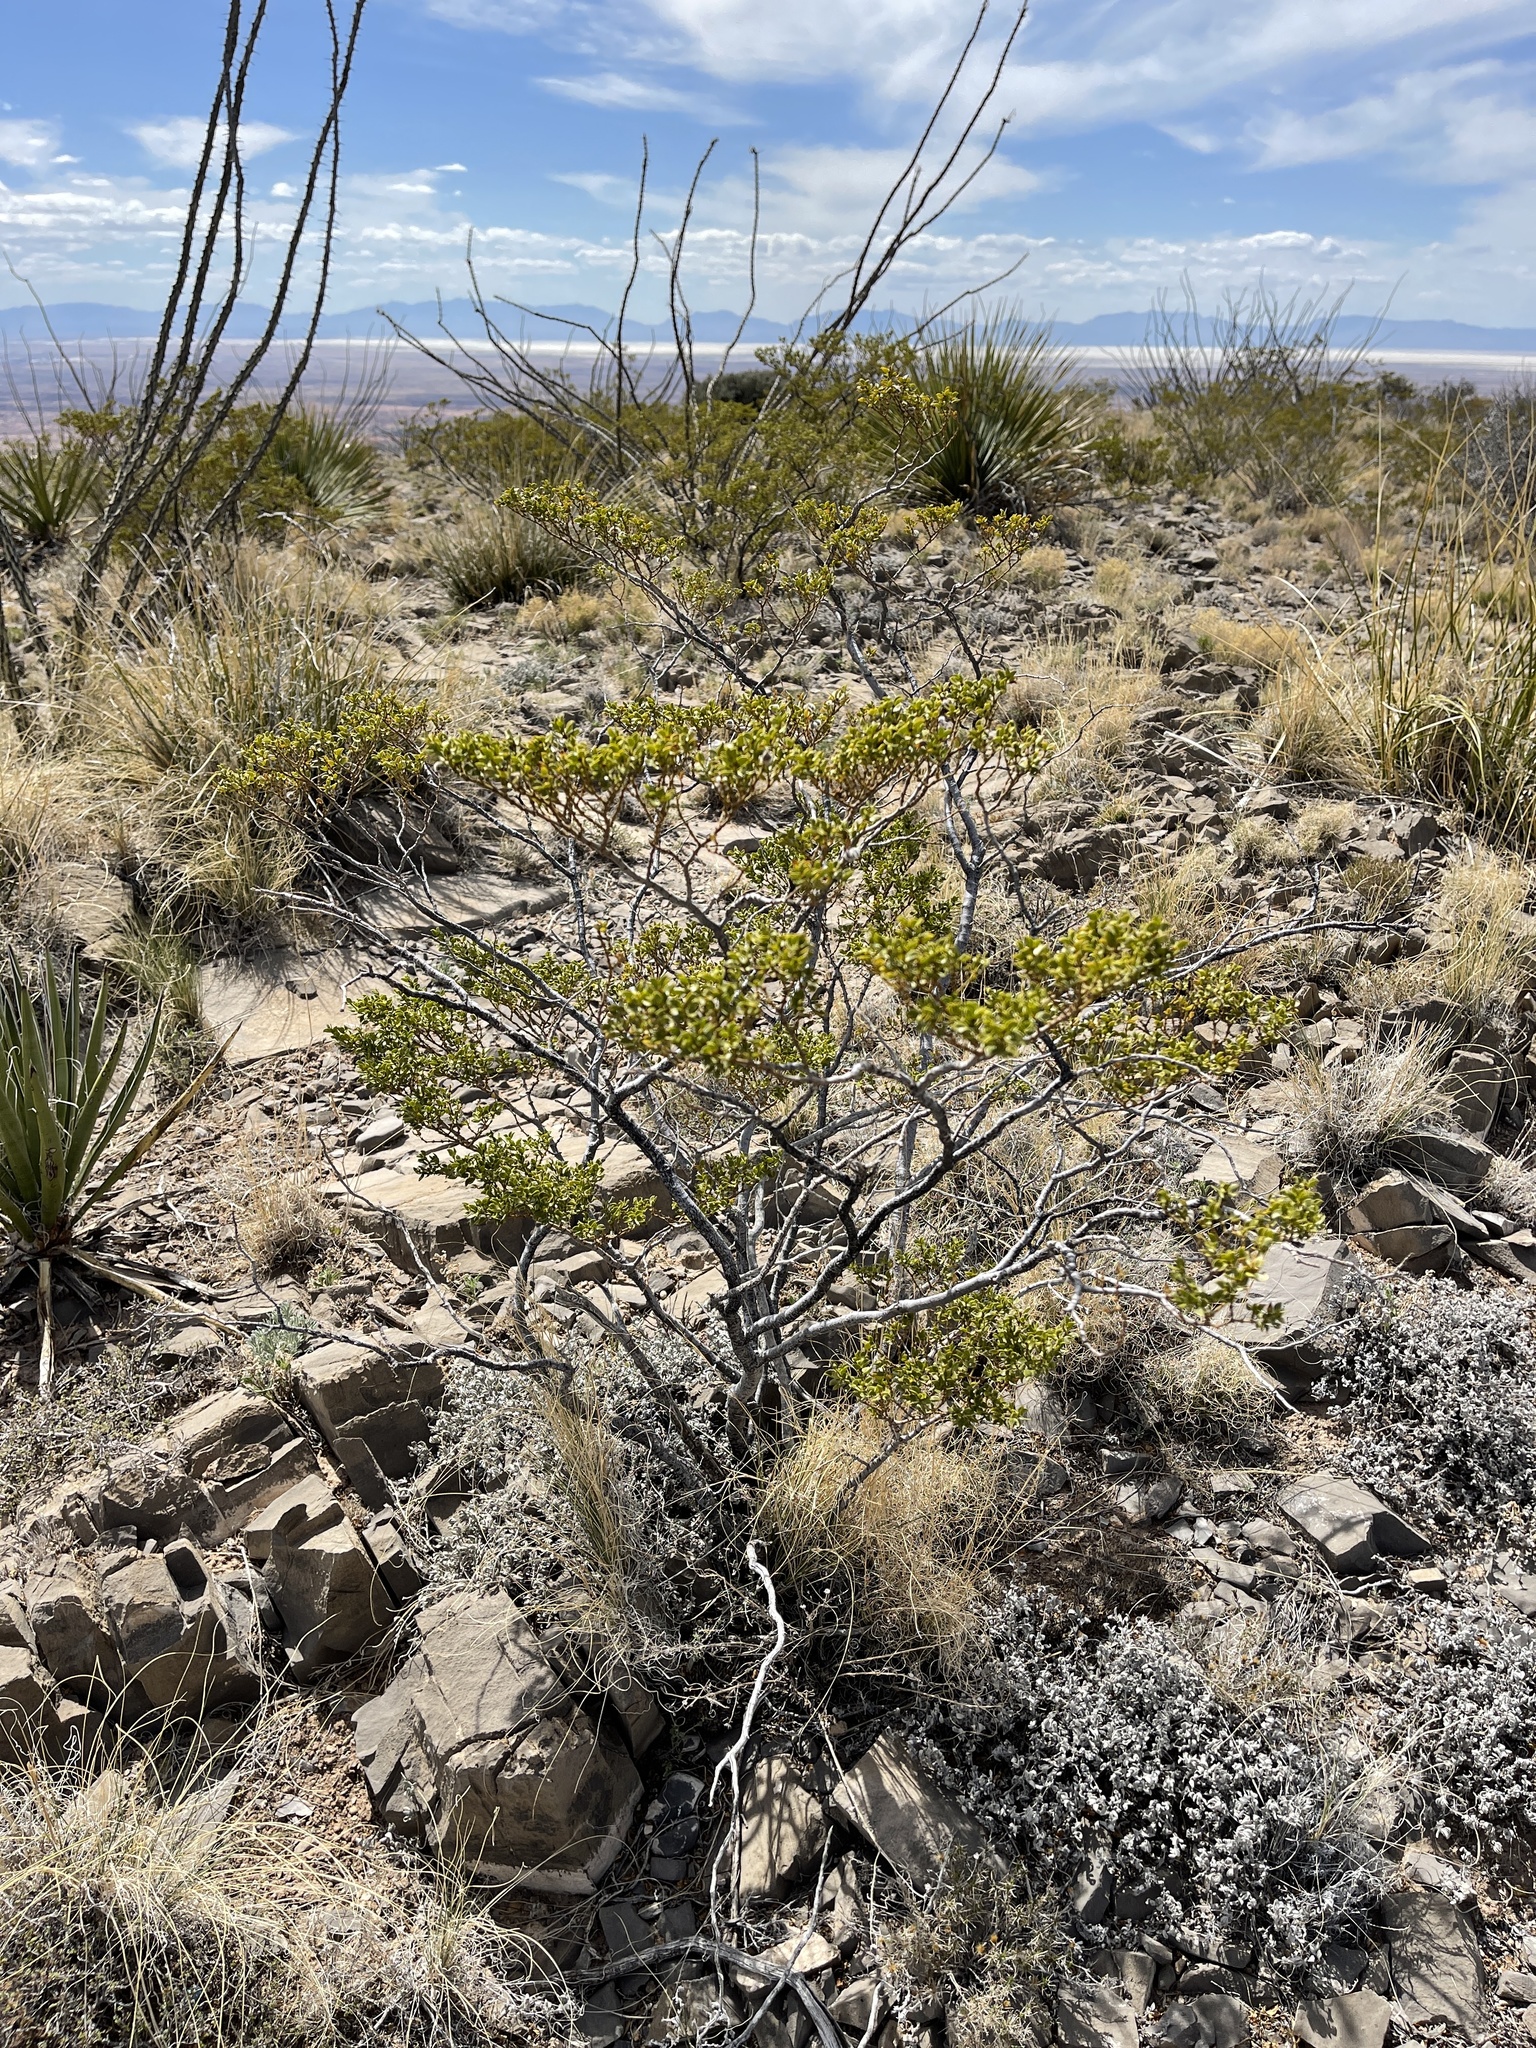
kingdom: Plantae
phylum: Tracheophyta
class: Magnoliopsida
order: Zygophyllales
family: Zygophyllaceae
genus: Larrea
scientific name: Larrea tridentata
